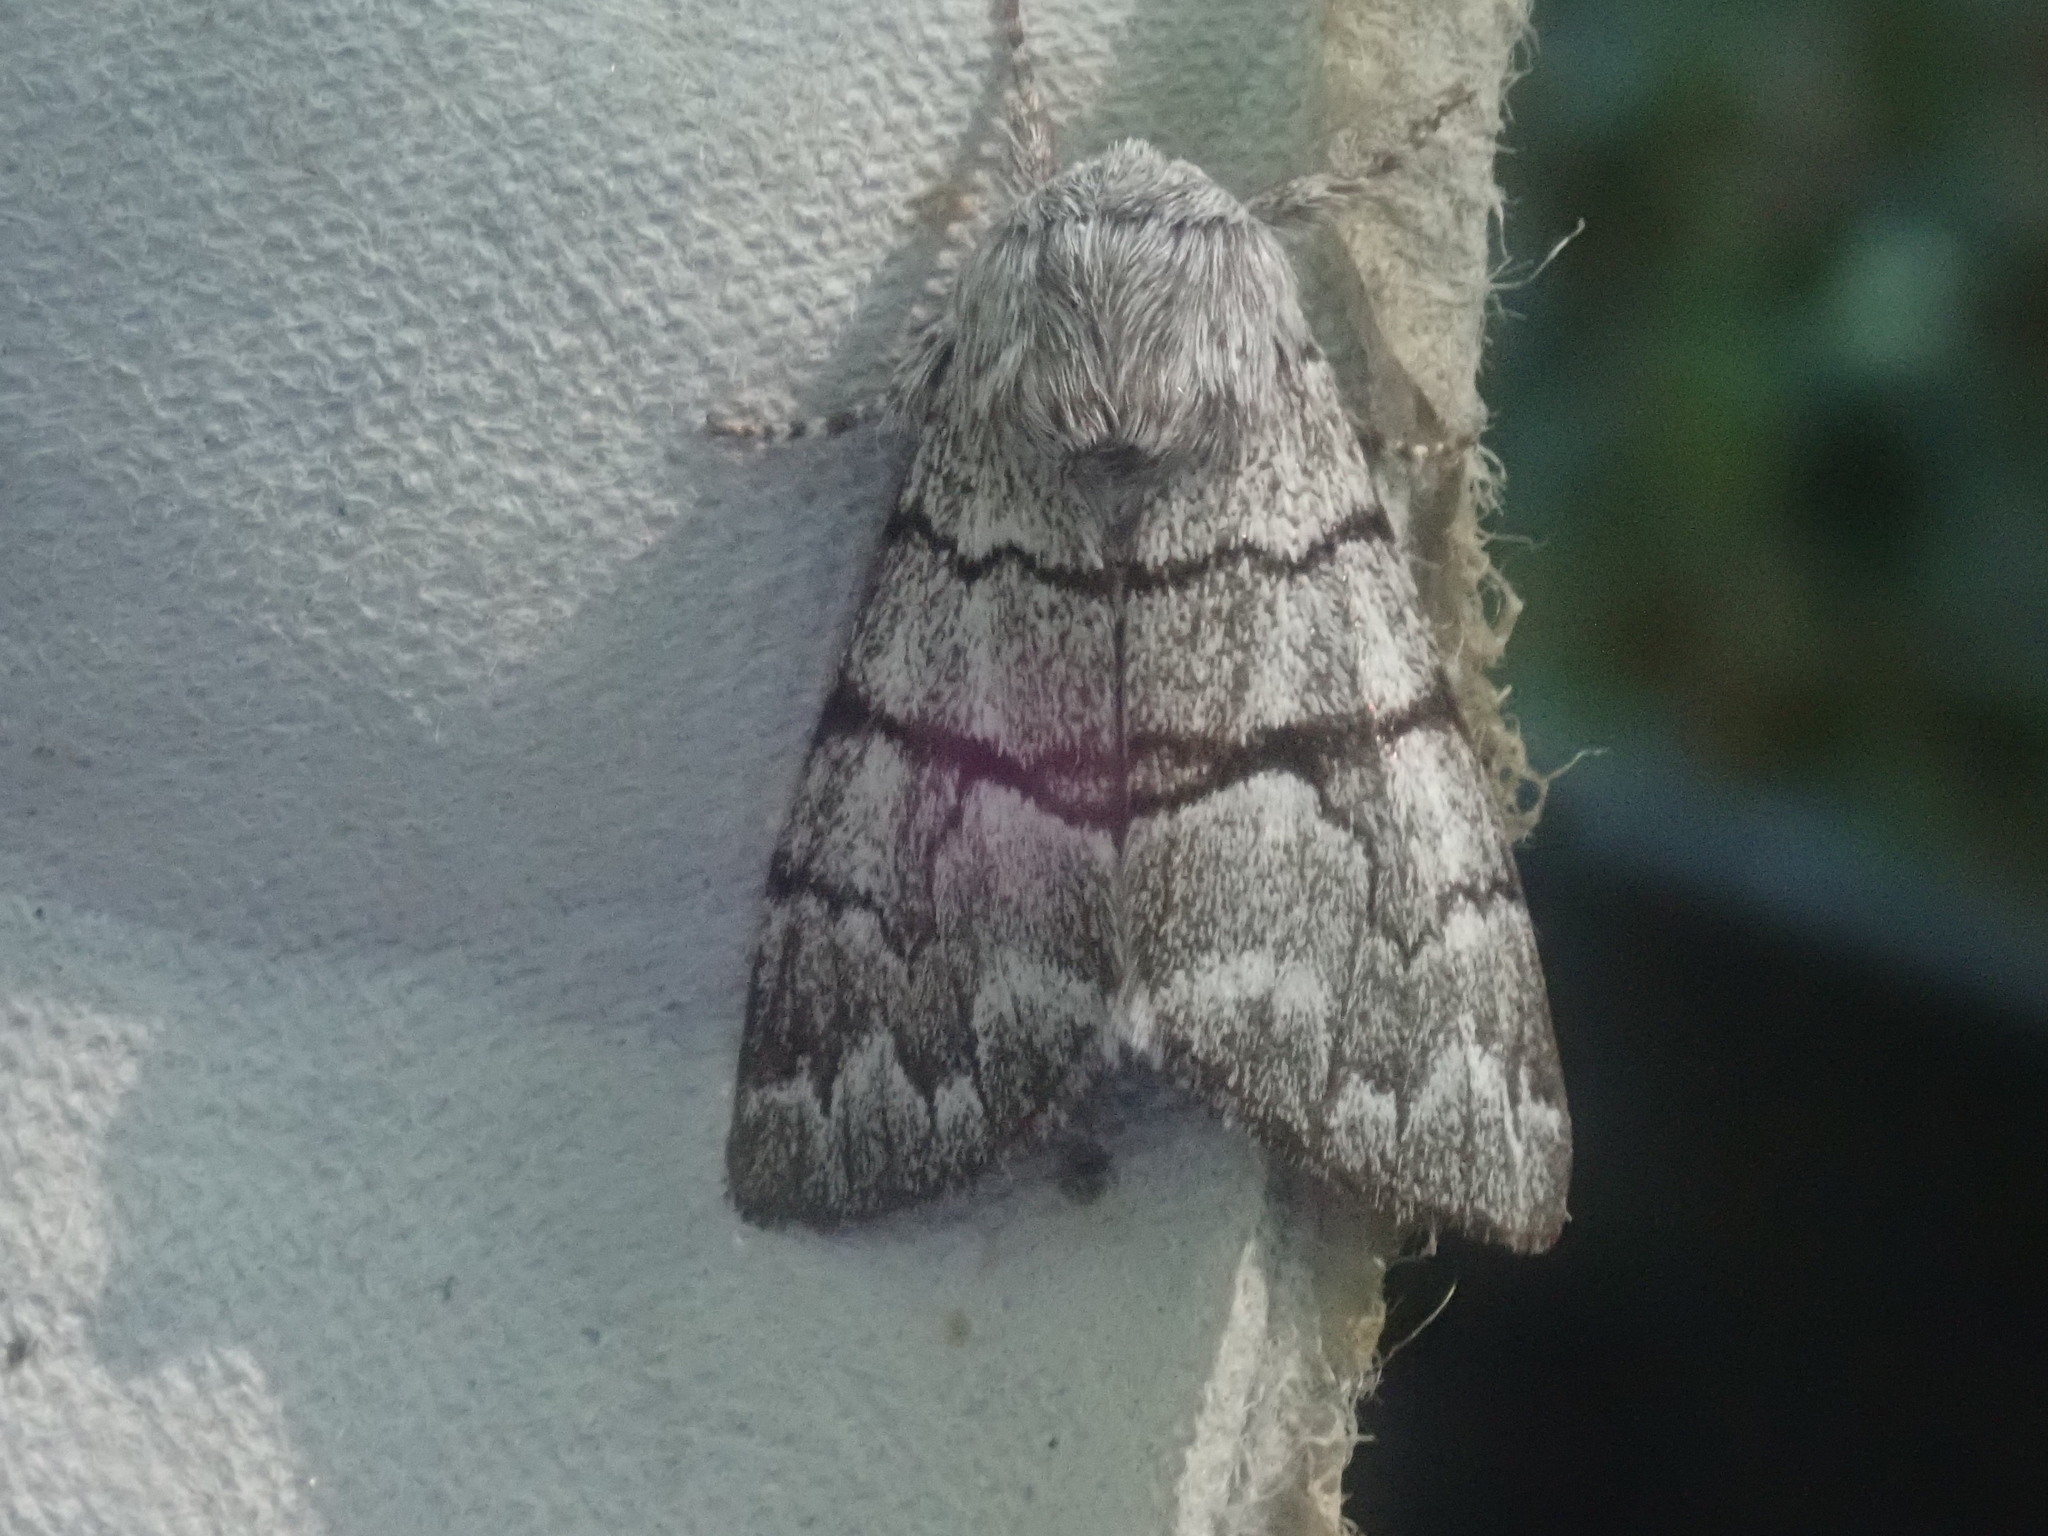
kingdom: Animalia
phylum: Arthropoda
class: Insecta
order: Lepidoptera
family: Noctuidae
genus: Panthea
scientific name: Panthea furcilla
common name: Eastern panthea moth
